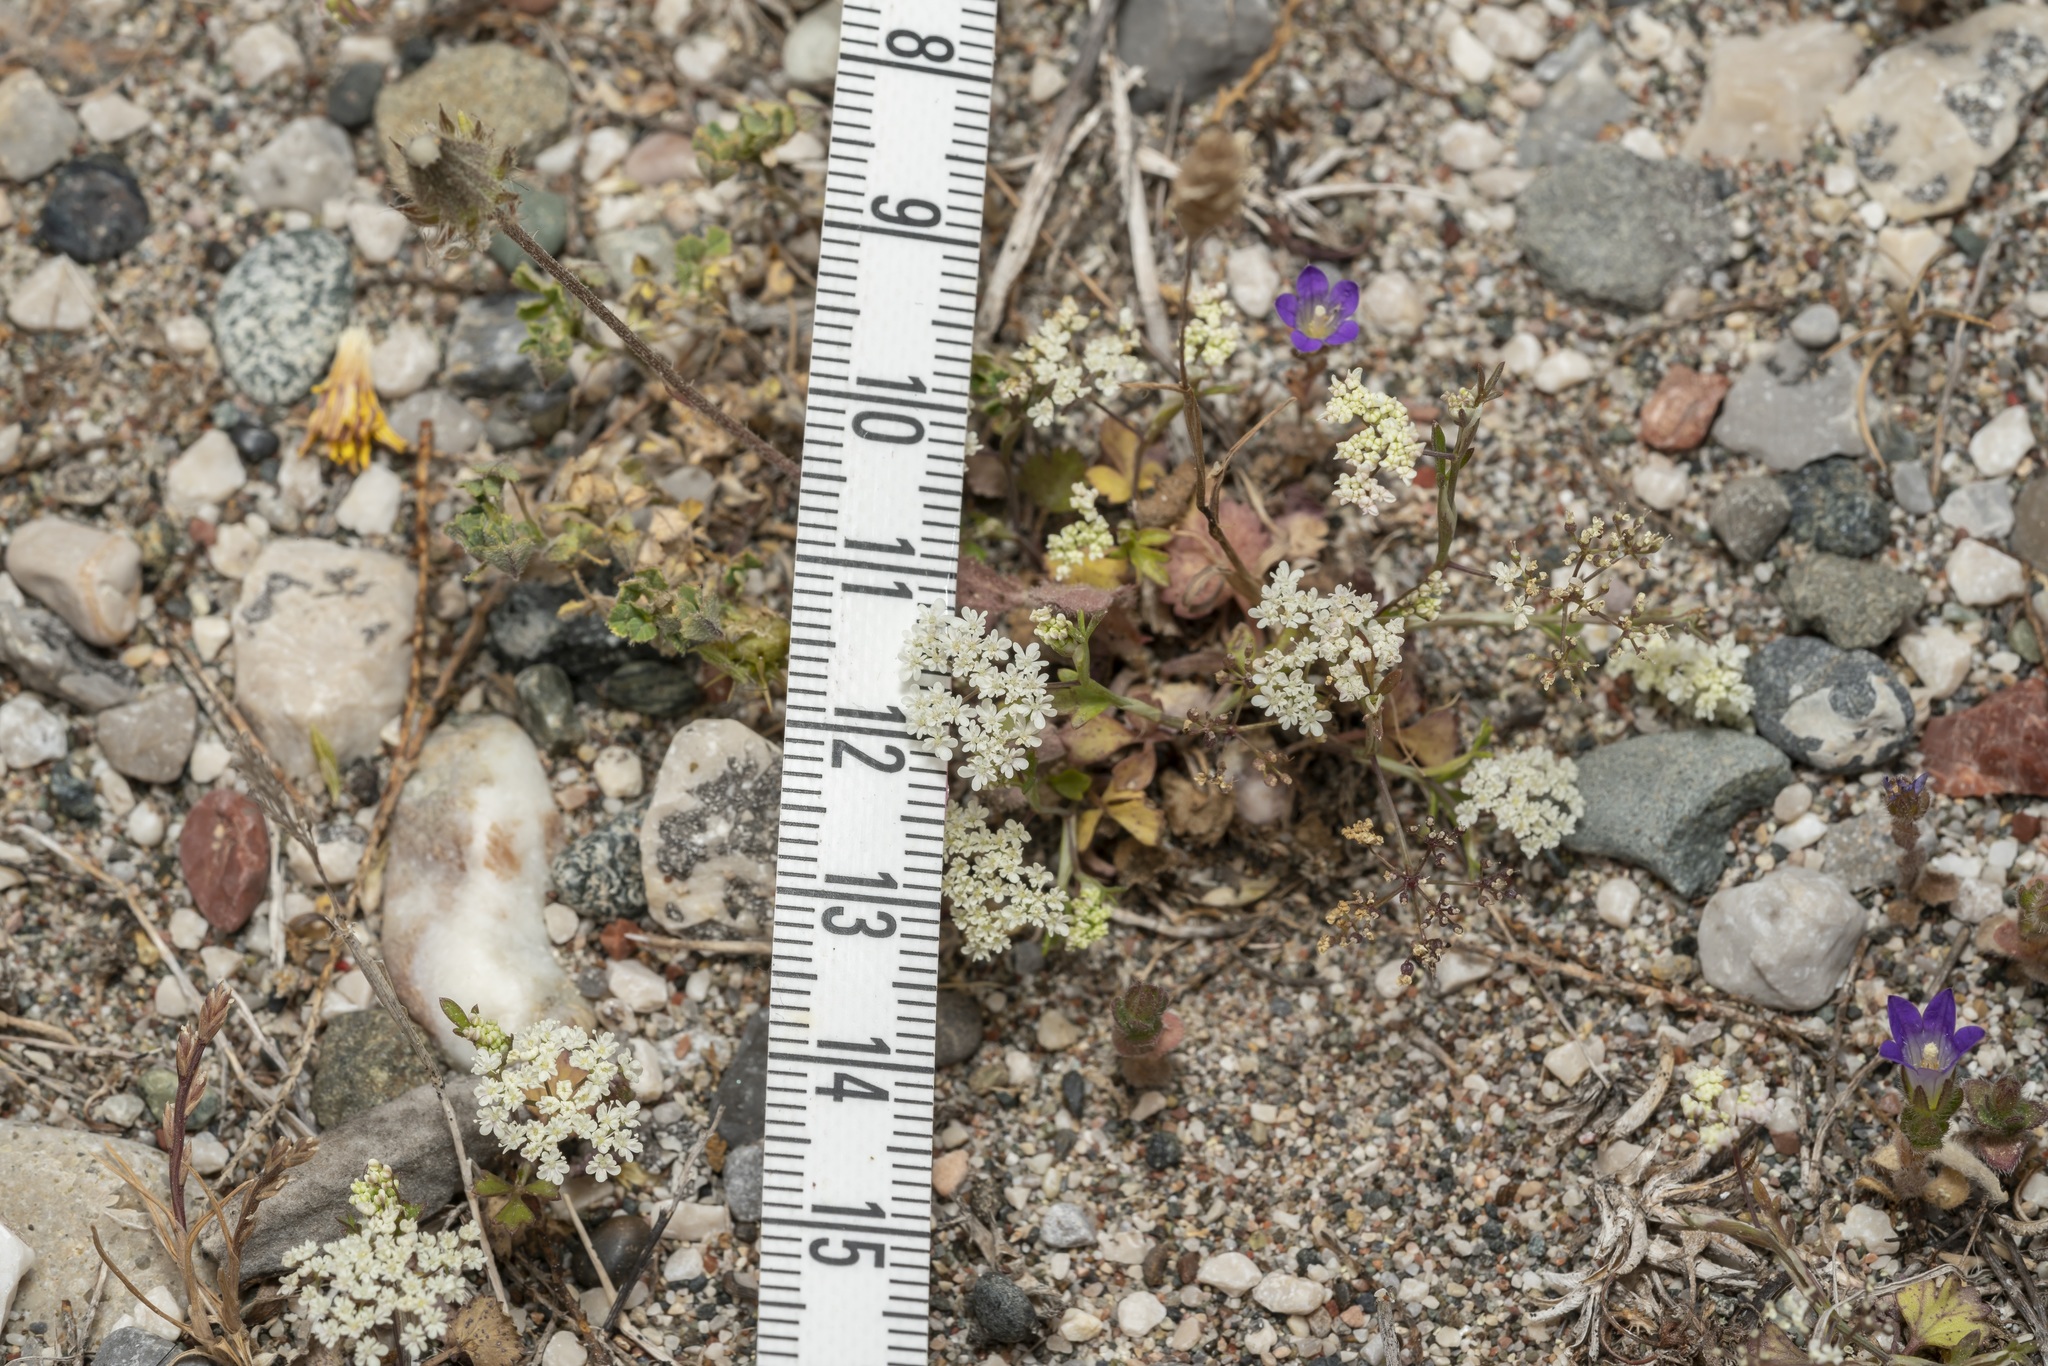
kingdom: Plantae
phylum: Tracheophyta
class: Magnoliopsida
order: Apiales
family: Apiaceae
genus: Pimpinella
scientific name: Pimpinella cretica
